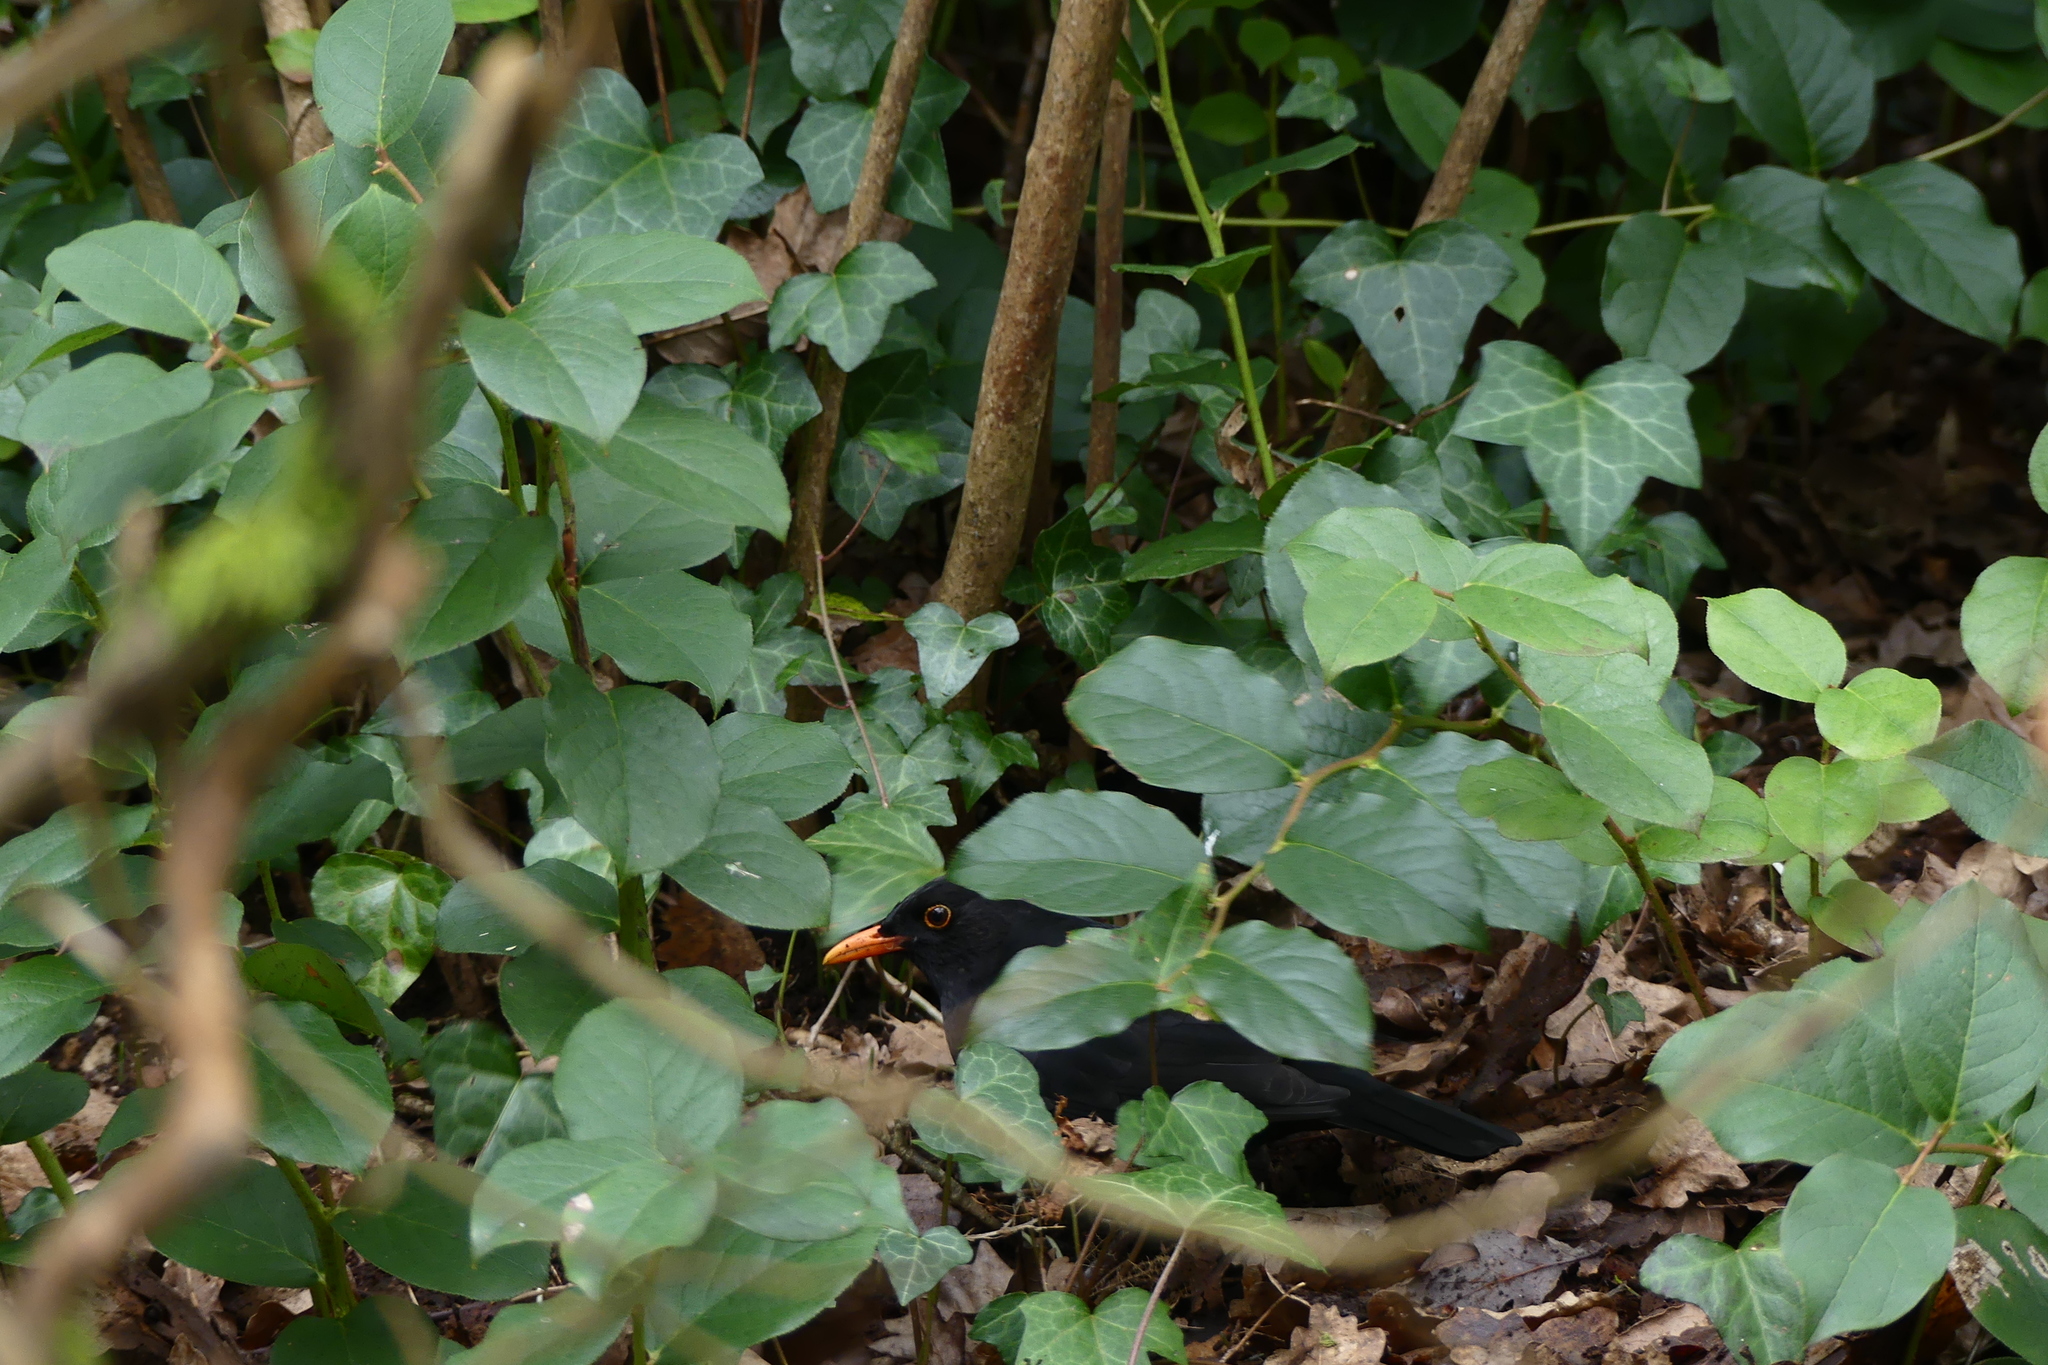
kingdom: Animalia
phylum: Chordata
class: Aves
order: Passeriformes
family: Turdidae
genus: Turdus
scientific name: Turdus merula
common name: Common blackbird
